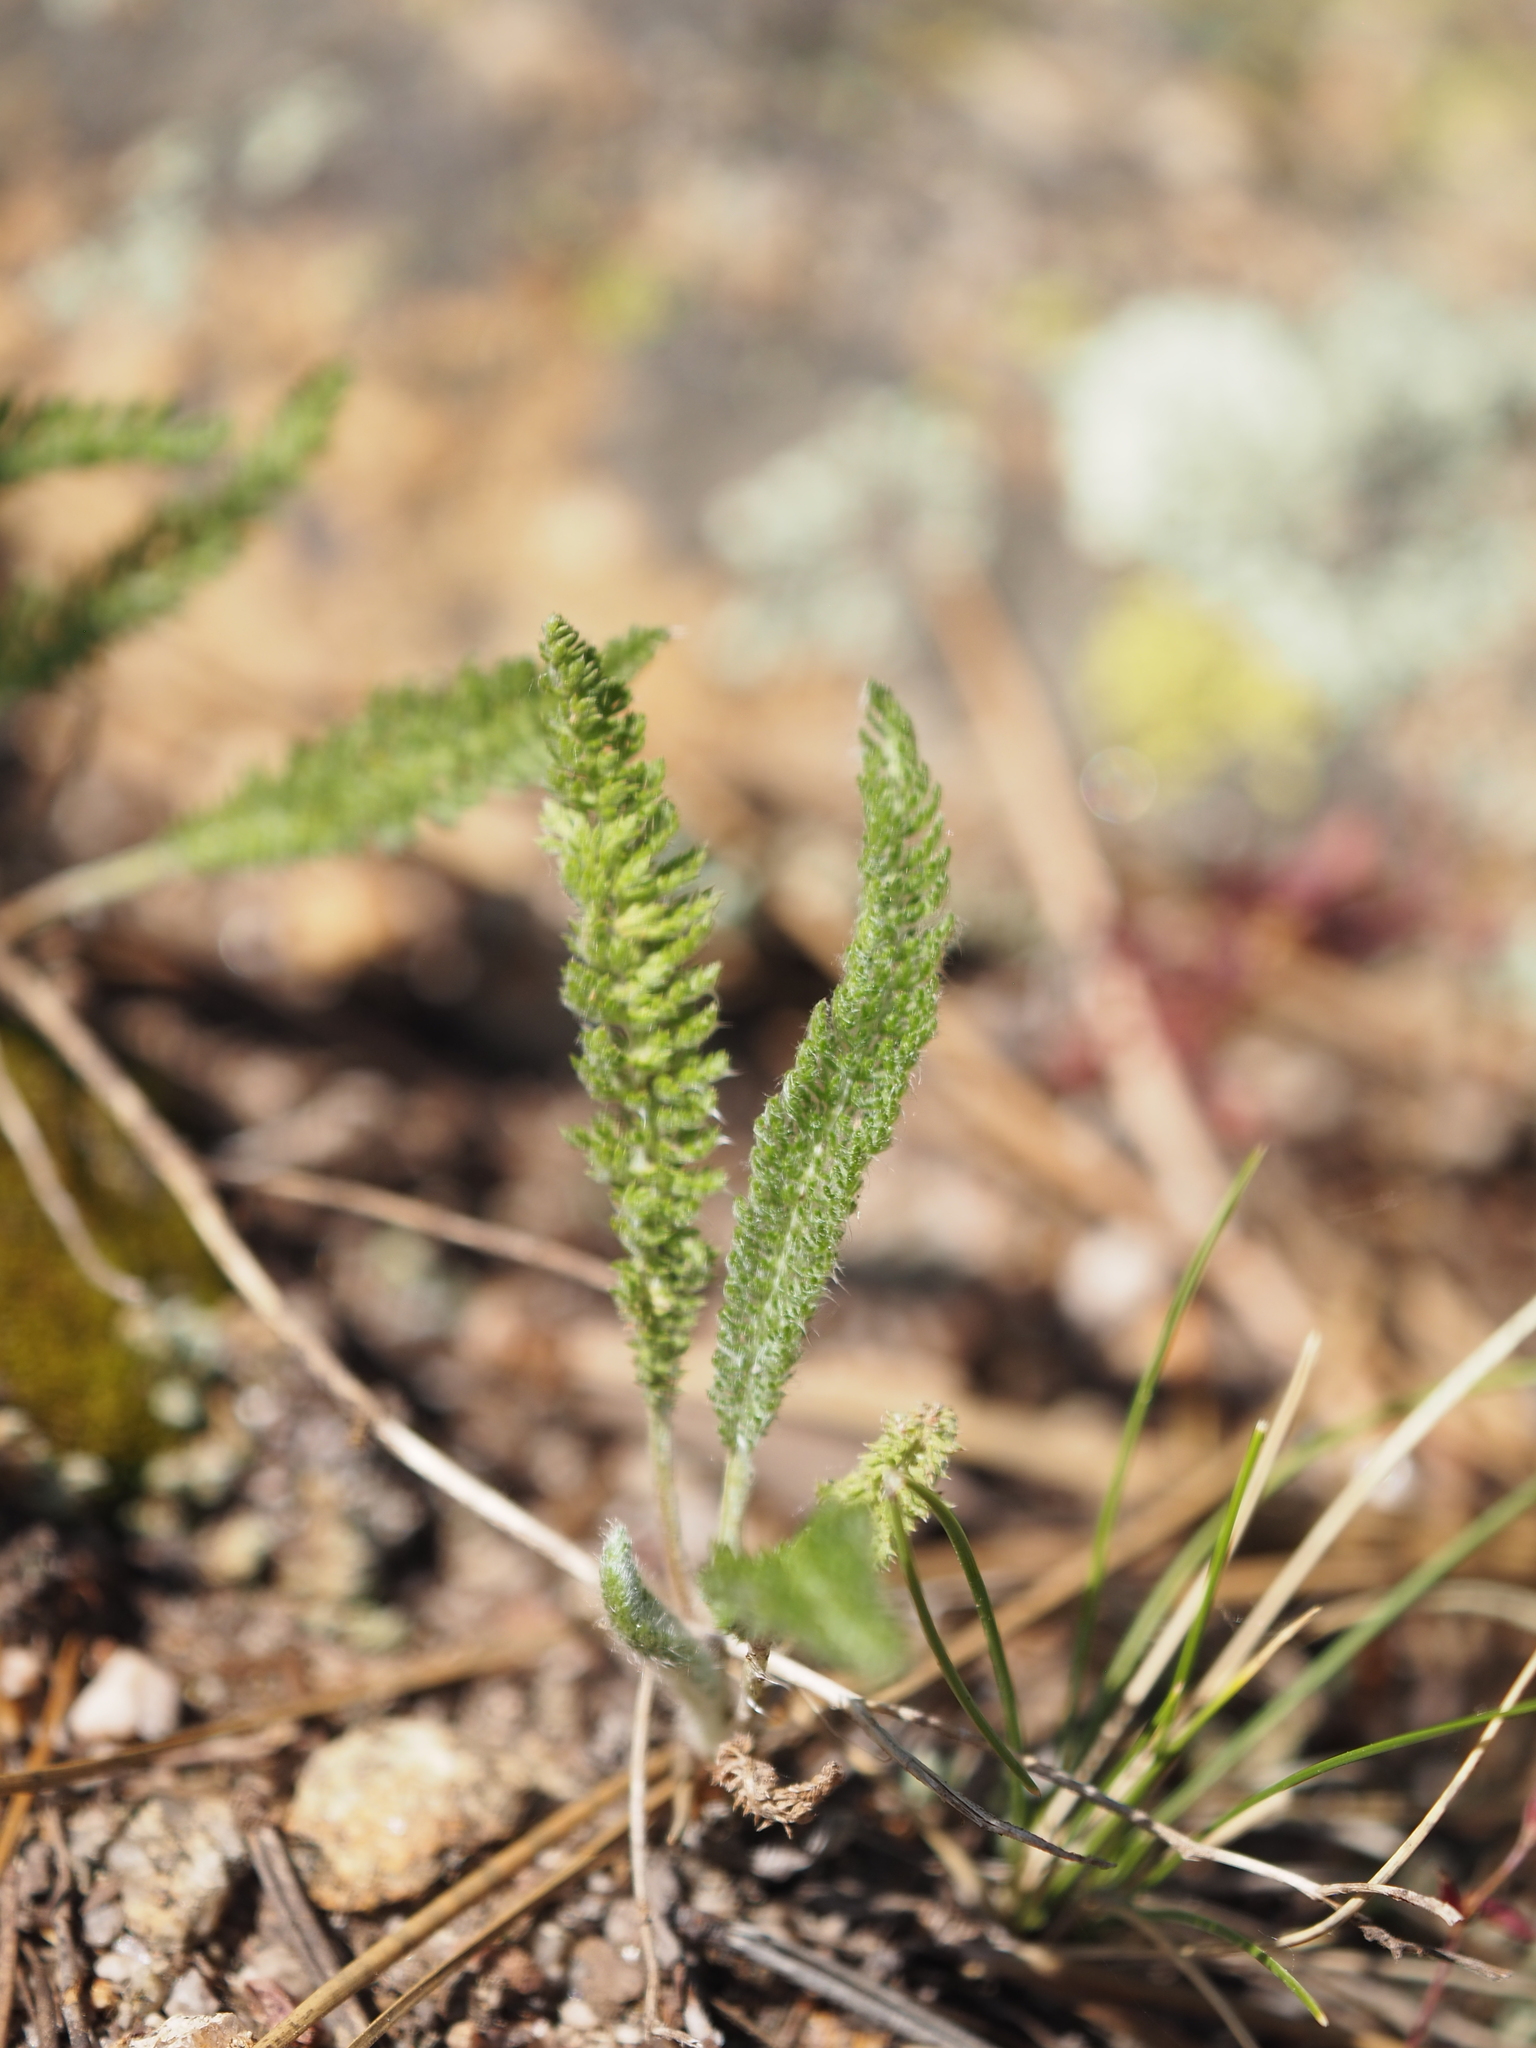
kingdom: Plantae
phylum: Tracheophyta
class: Magnoliopsida
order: Asterales
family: Asteraceae
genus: Achillea
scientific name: Achillea millefolium
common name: Yarrow
